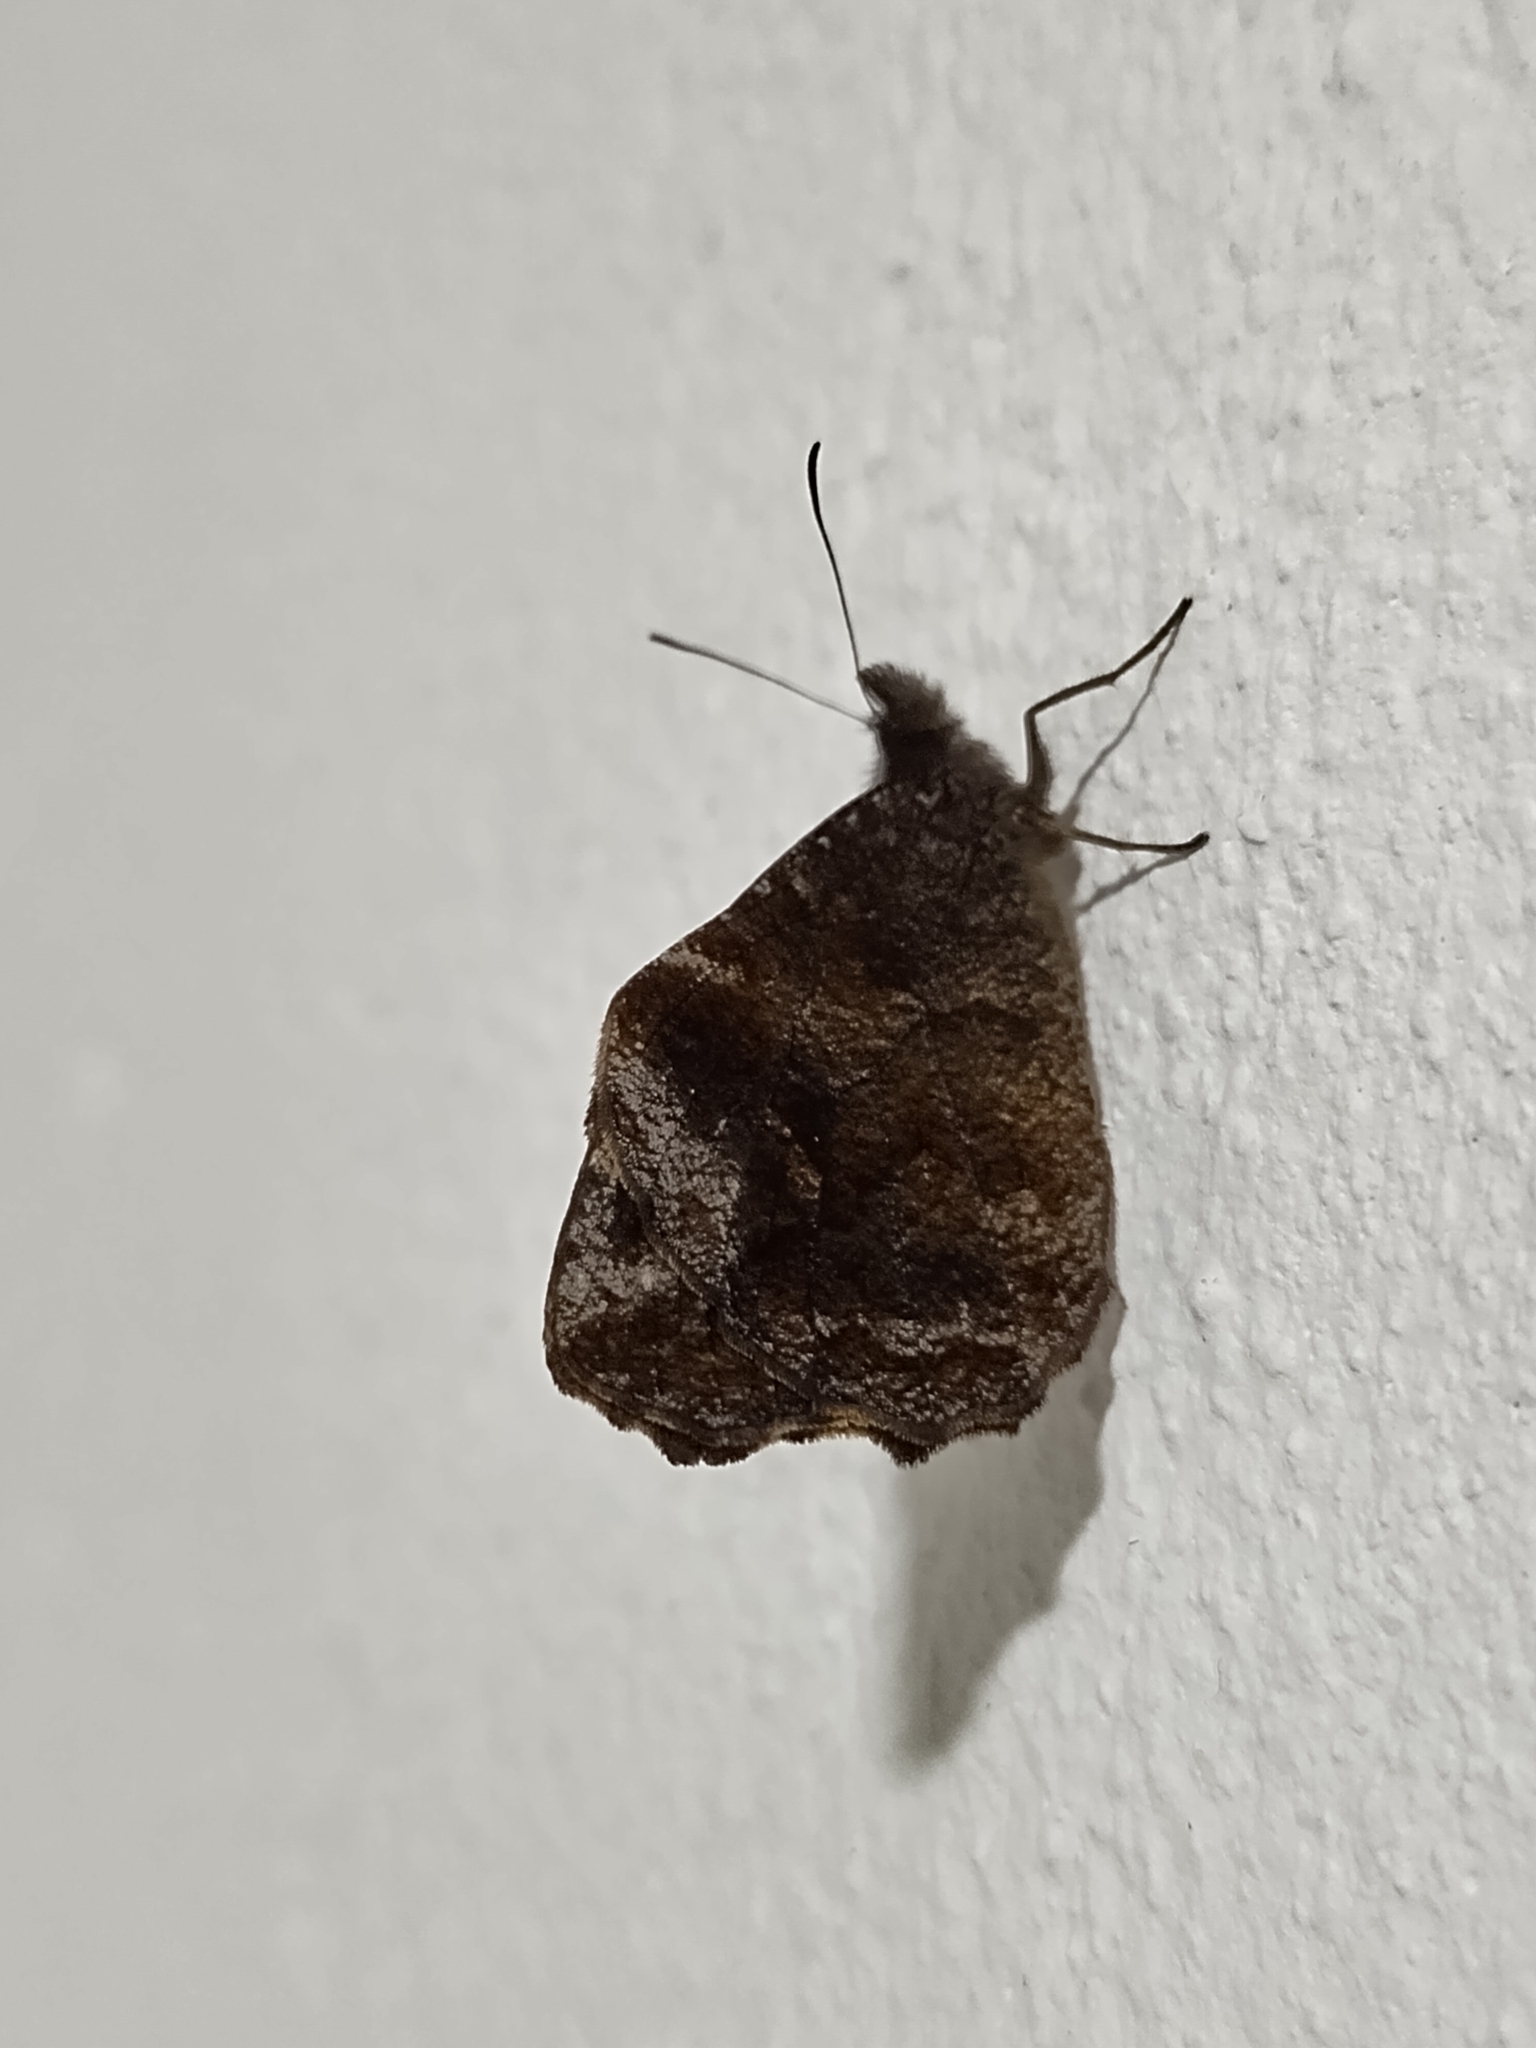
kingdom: Animalia
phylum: Arthropoda
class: Insecta
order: Lepidoptera
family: Nymphalidae
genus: Panyapedaliodes
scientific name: Panyapedaliodes drymaea
